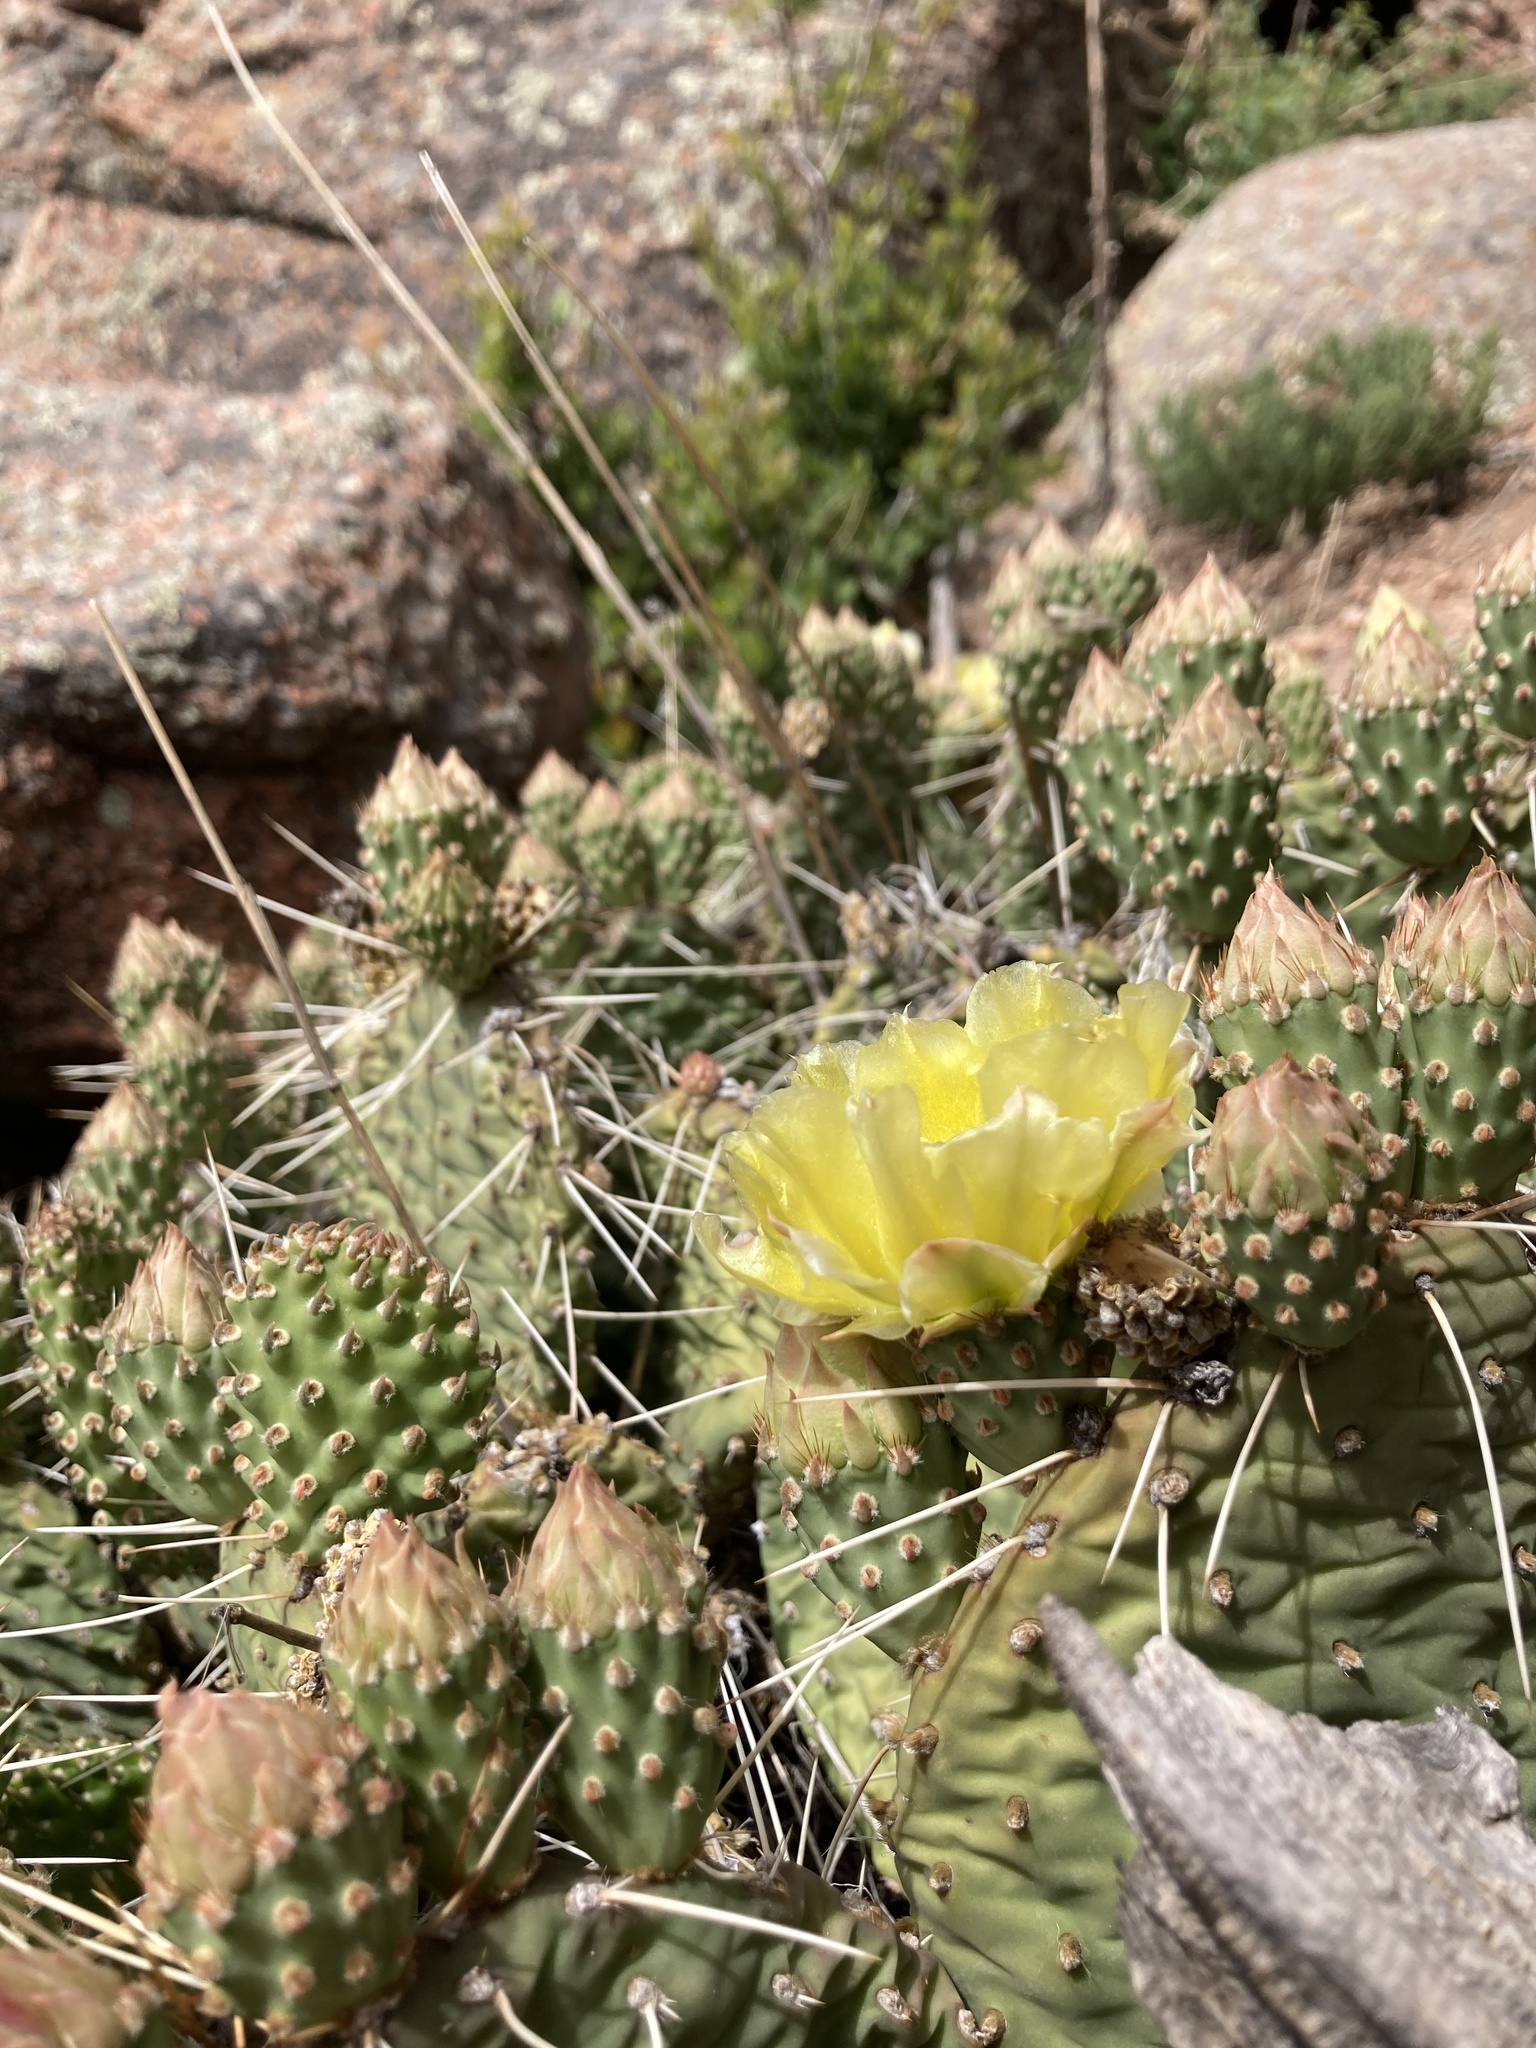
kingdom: Plantae
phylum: Tracheophyta
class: Magnoliopsida
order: Caryophyllales
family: Cactaceae
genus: Opuntia
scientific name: Opuntia cymochila
